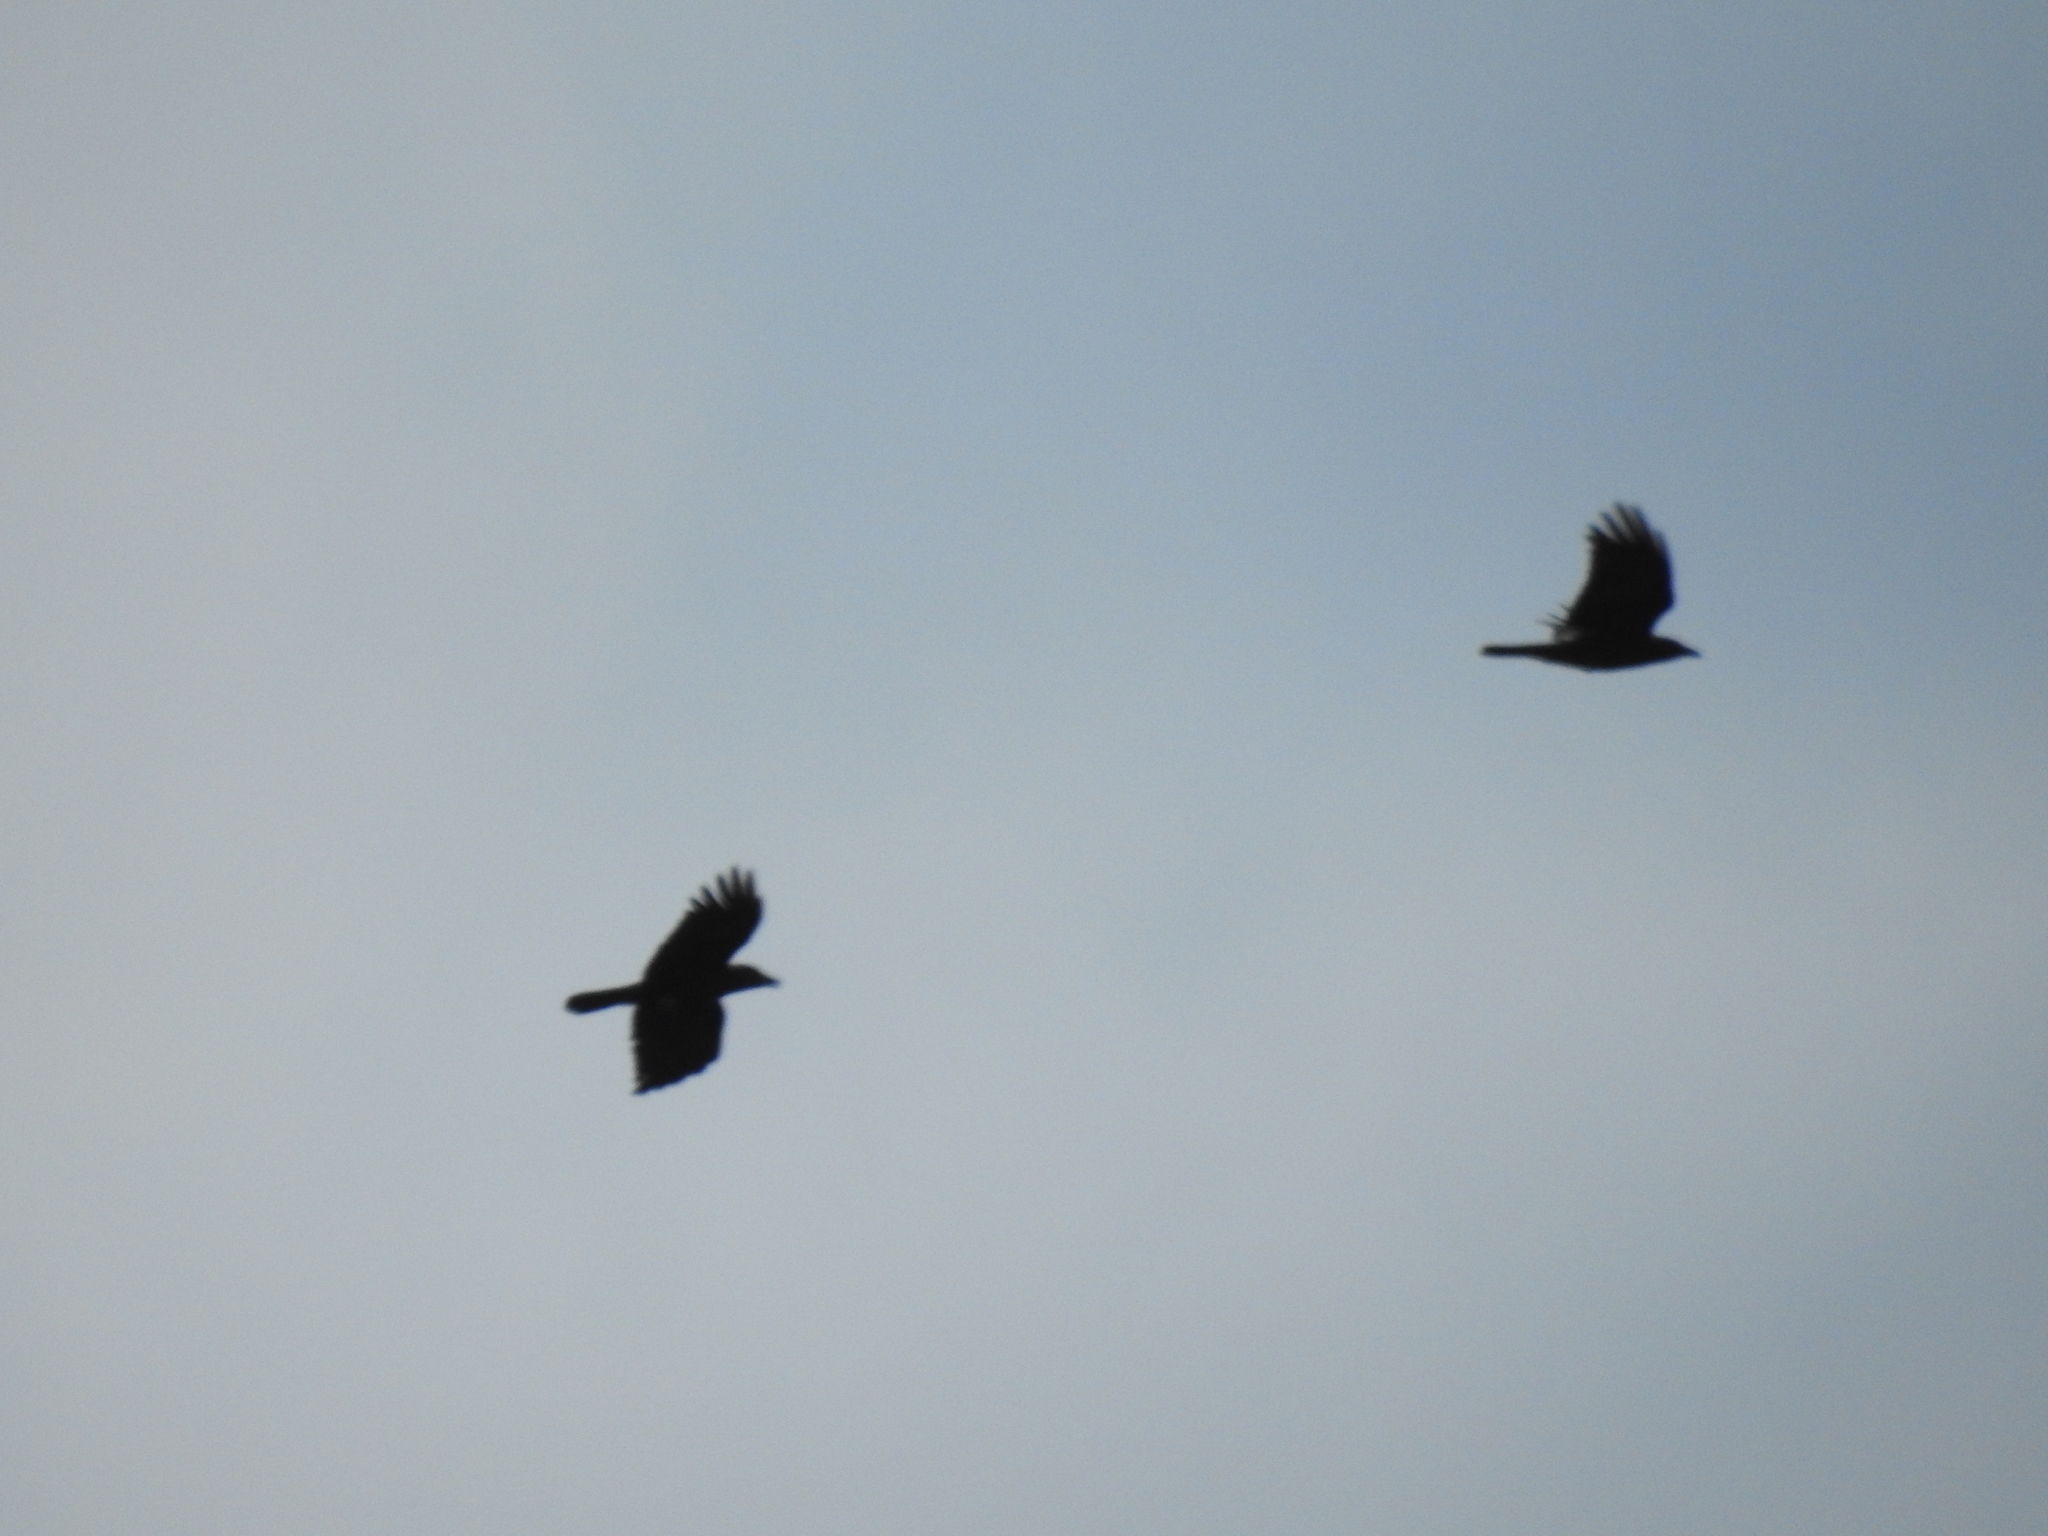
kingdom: Animalia
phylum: Chordata
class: Aves
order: Passeriformes
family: Corvidae
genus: Corvus
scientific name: Corvus brachyrhynchos
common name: American crow
